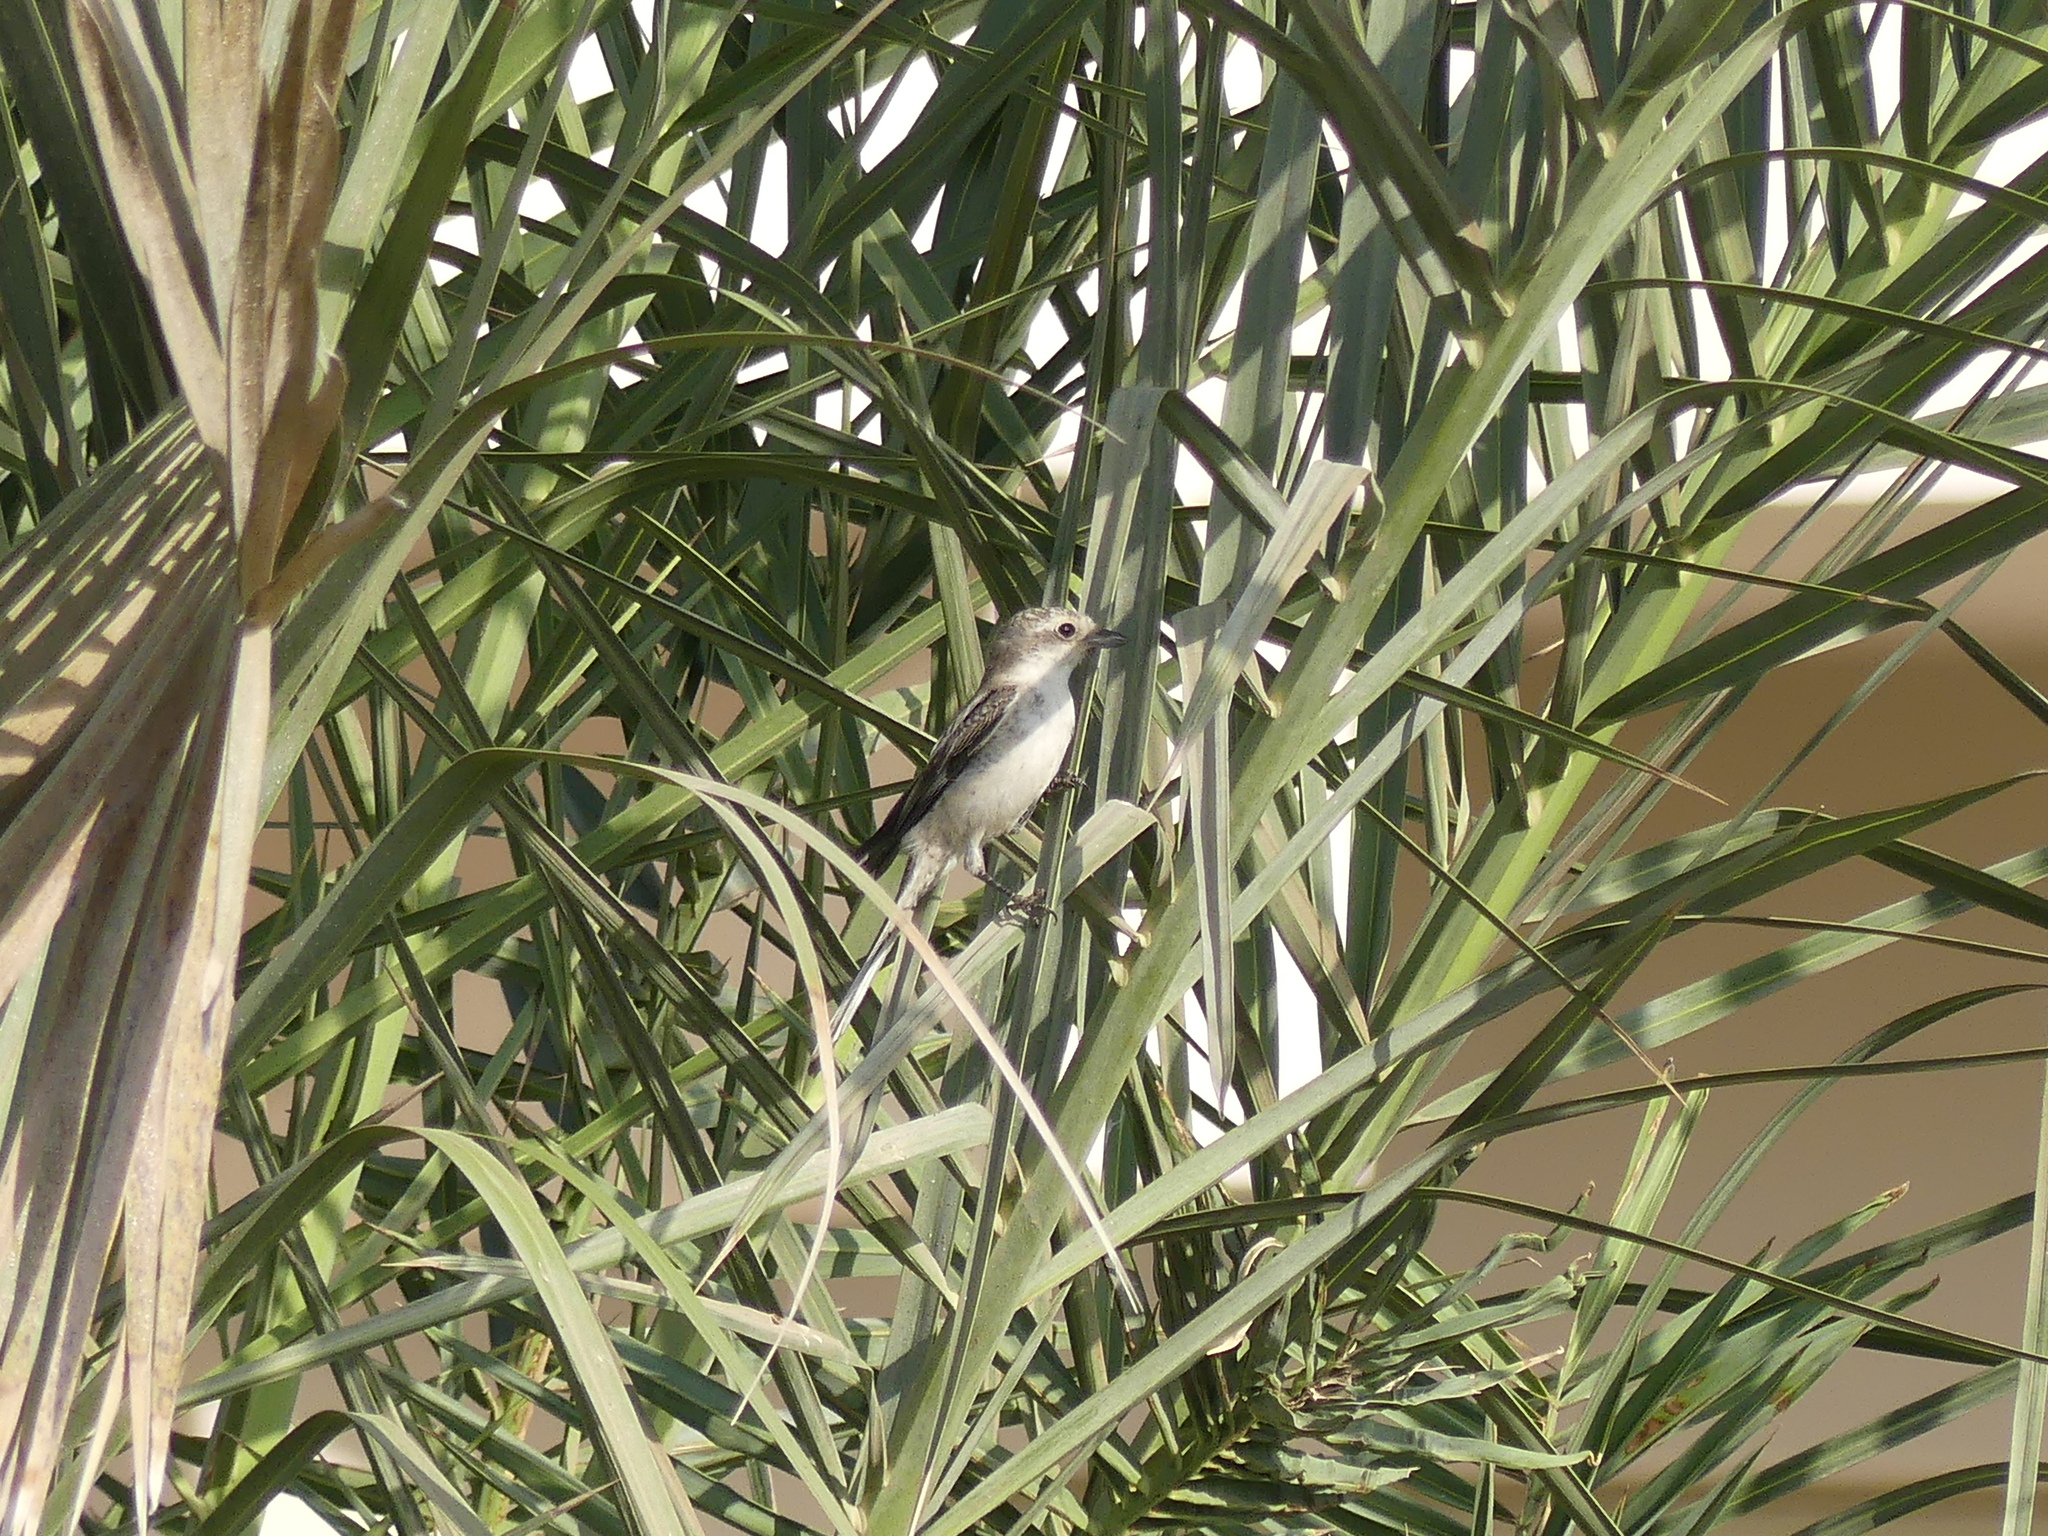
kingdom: Animalia
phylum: Chordata
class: Aves
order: Passeriformes
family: Laniidae
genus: Lanius
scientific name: Lanius nubicus
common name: Masked shrike
